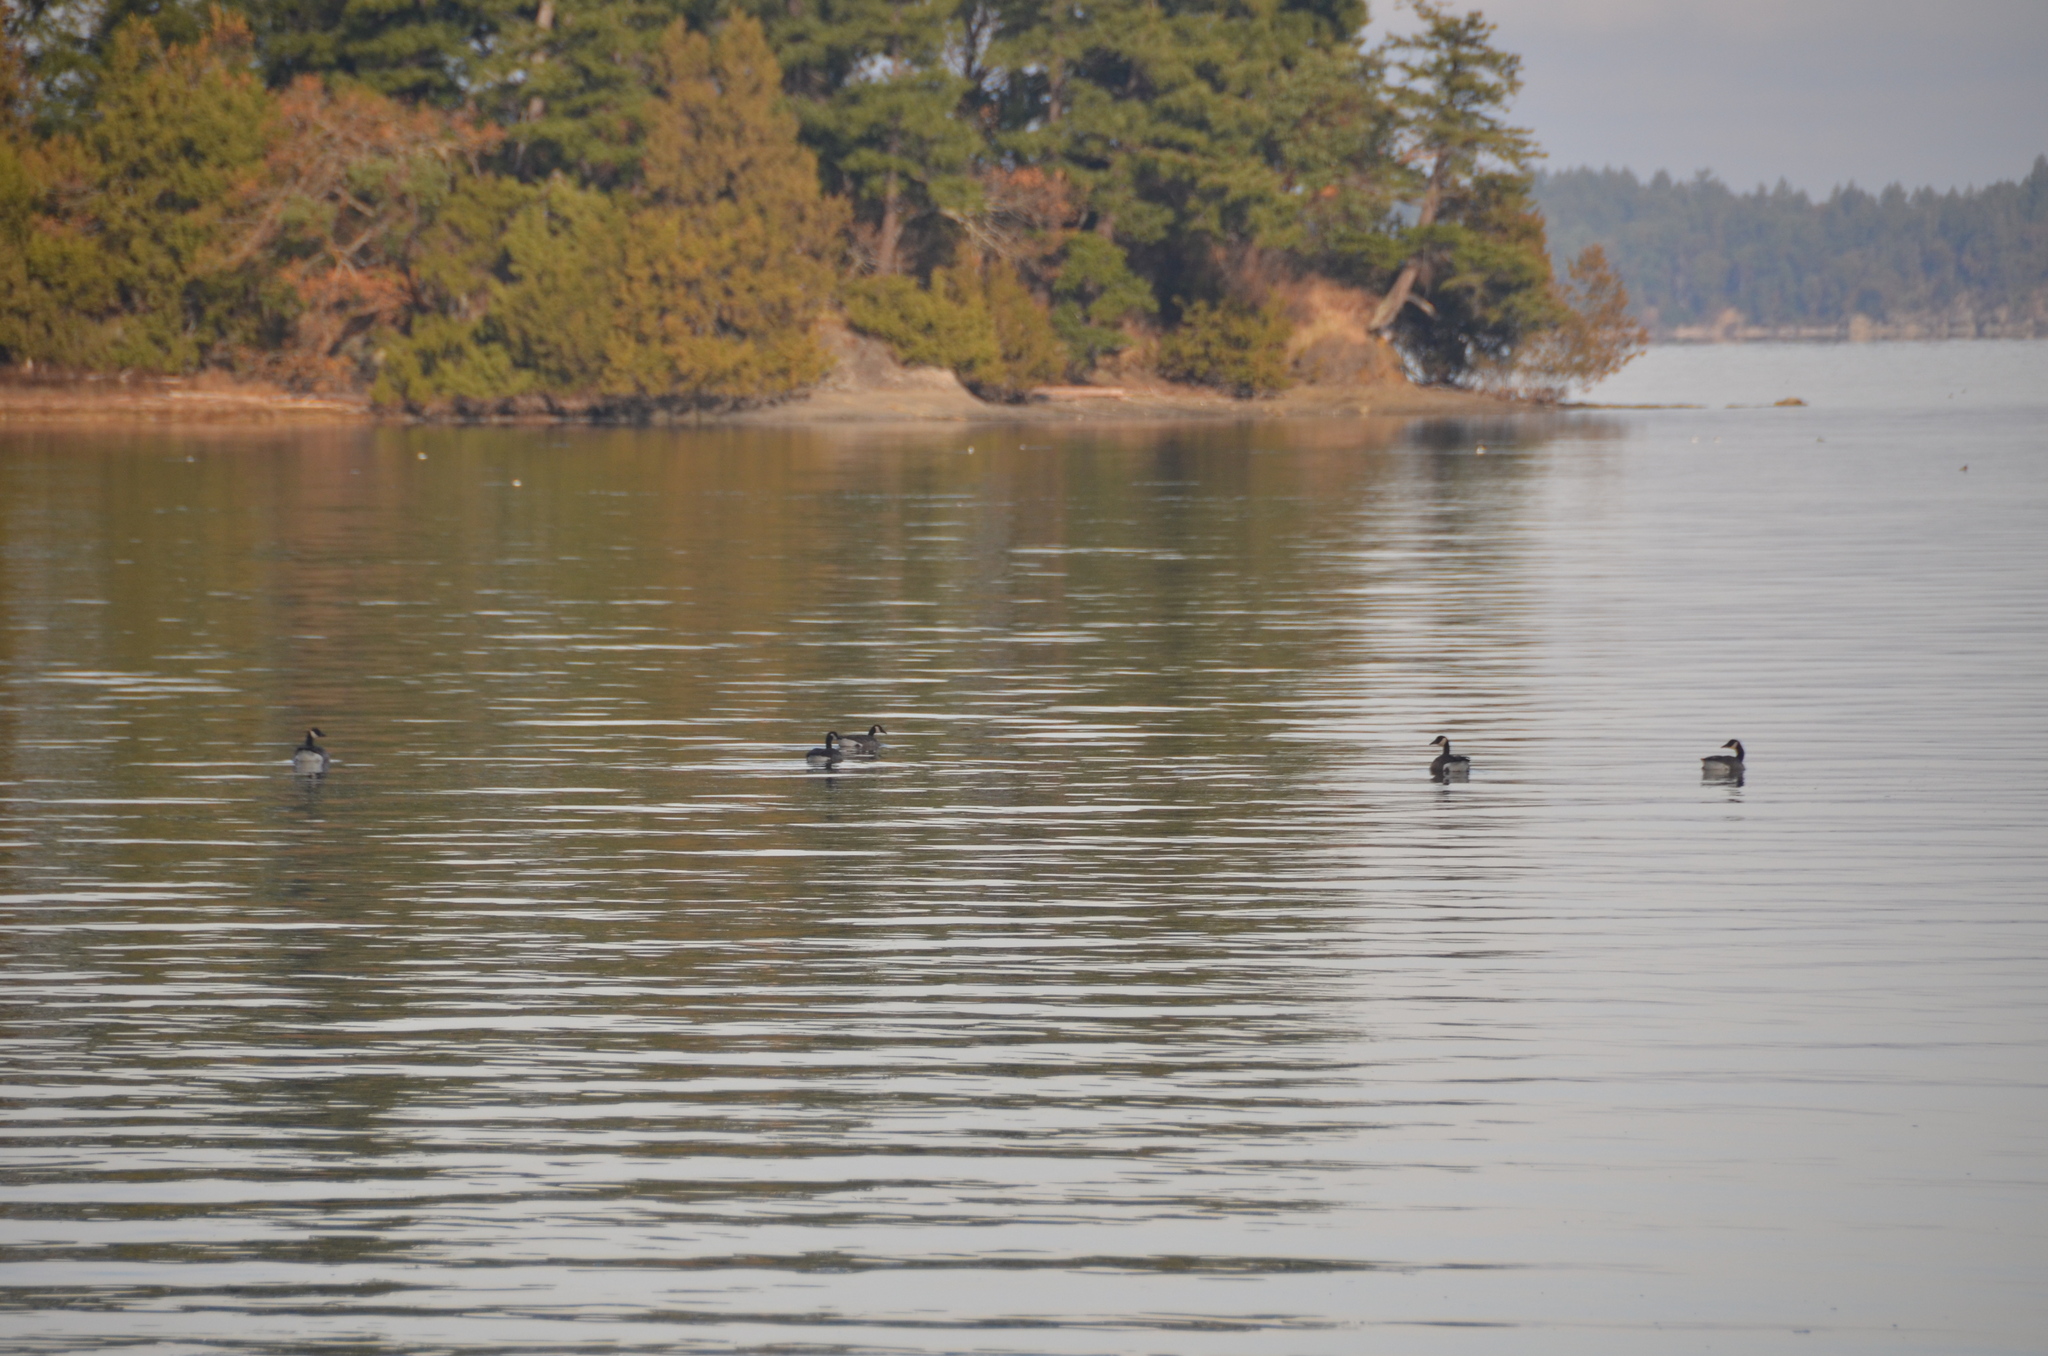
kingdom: Animalia
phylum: Chordata
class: Aves
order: Anseriformes
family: Anatidae
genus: Branta
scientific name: Branta canadensis
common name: Canada goose
